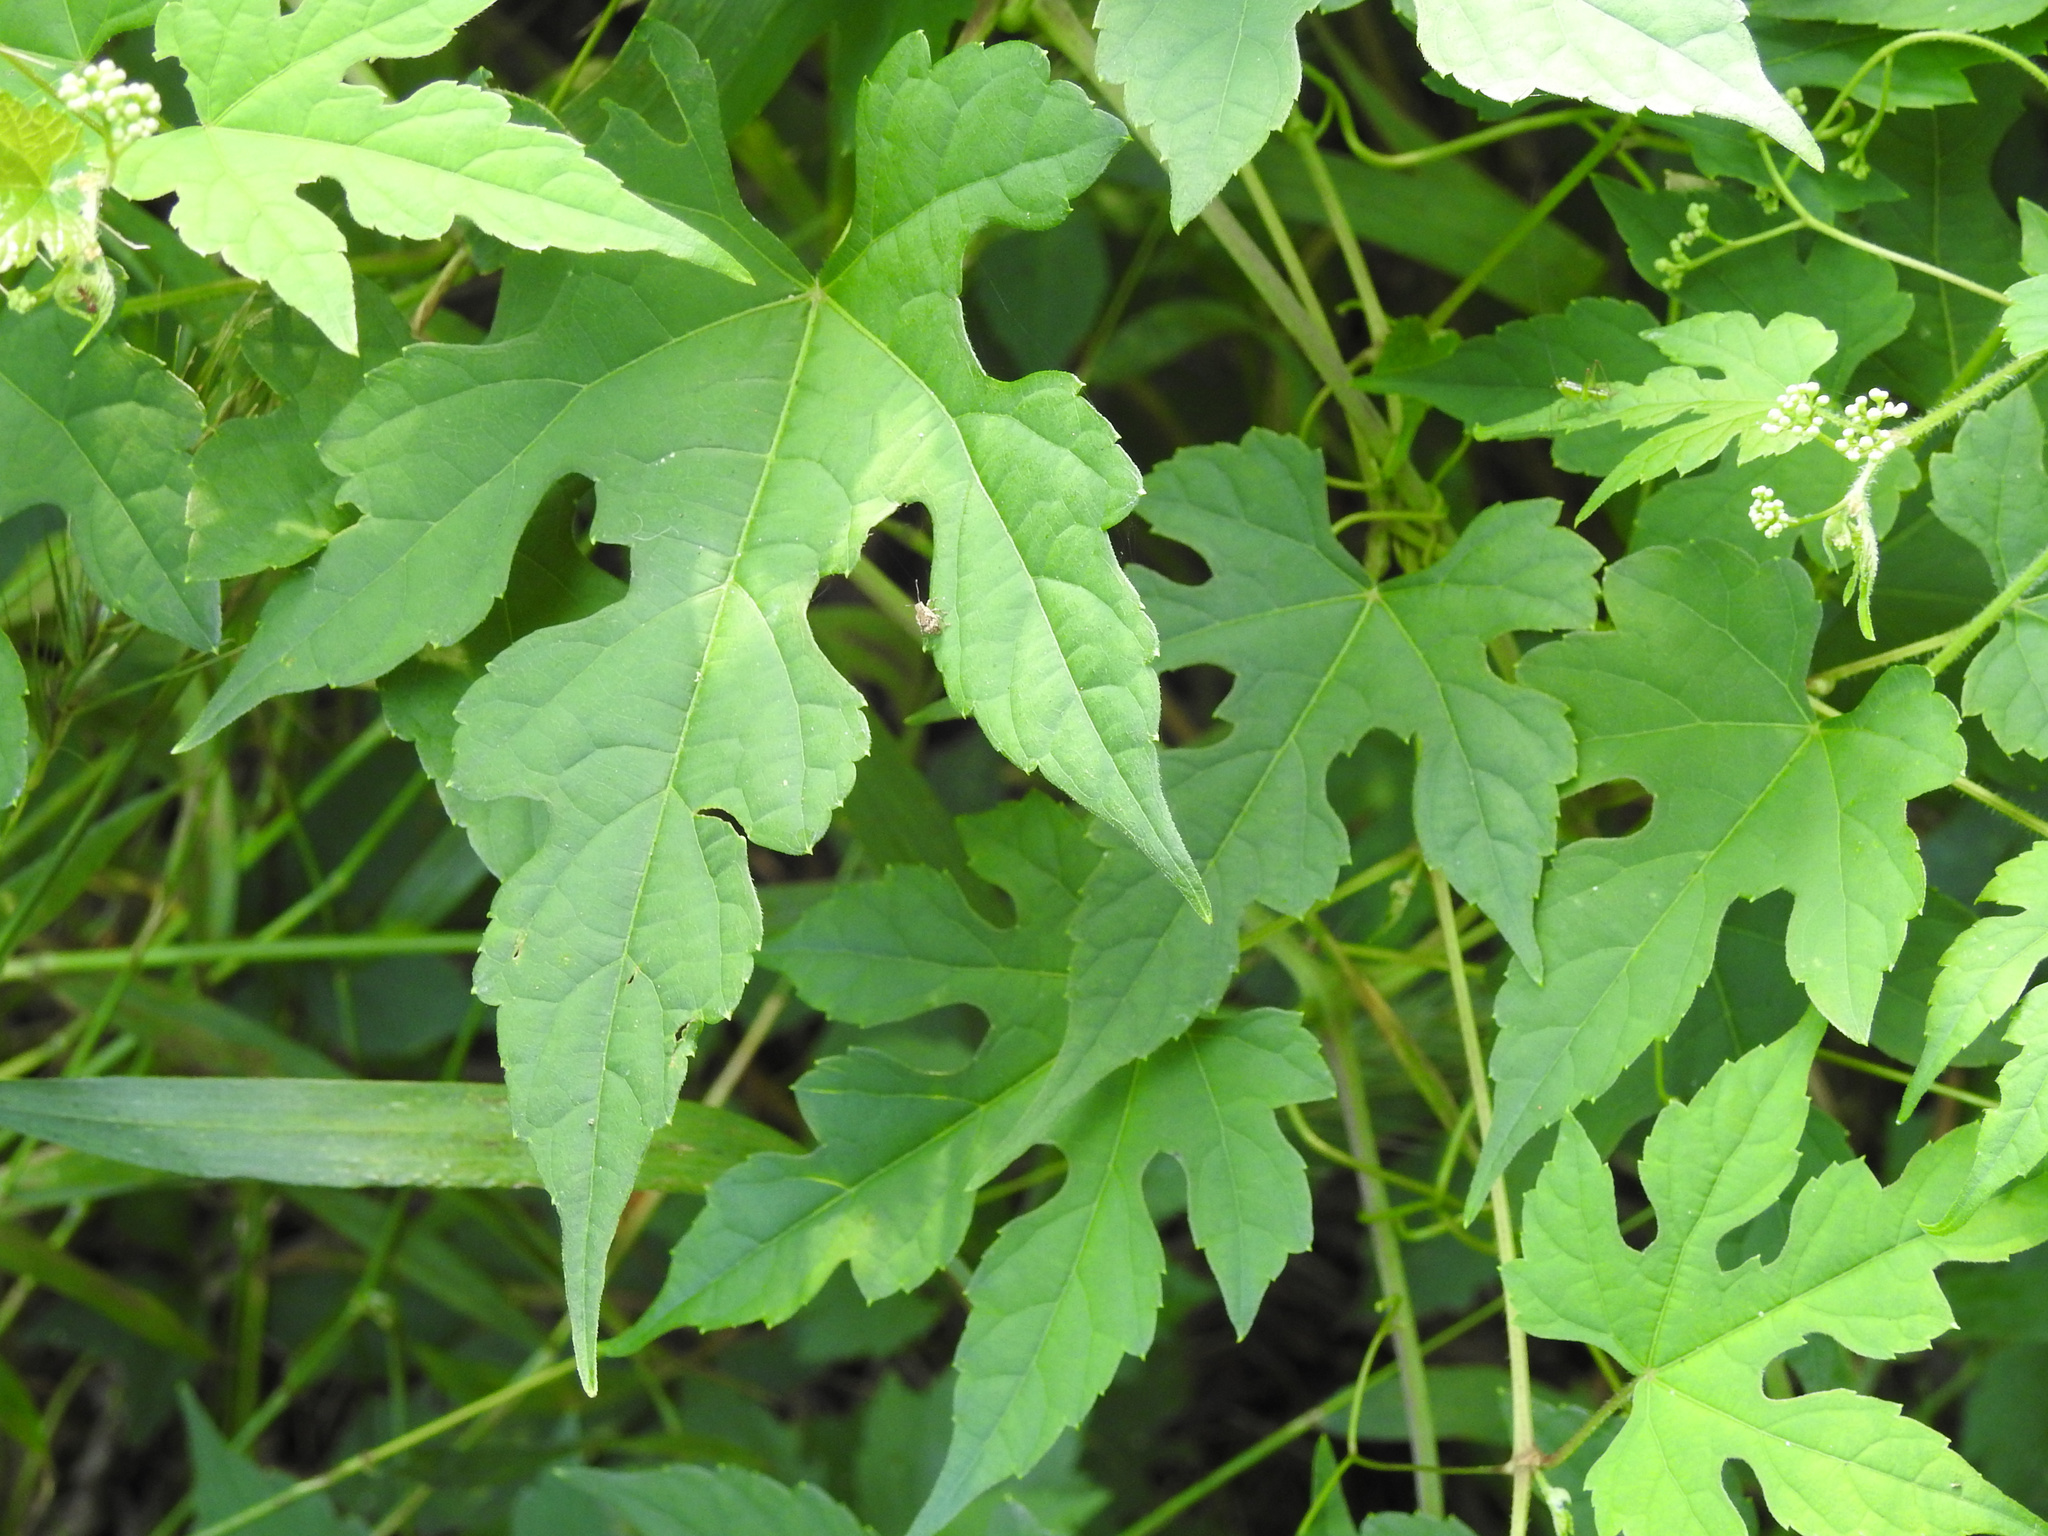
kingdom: Plantae
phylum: Tracheophyta
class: Magnoliopsida
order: Vitales
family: Vitaceae
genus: Ampelopsis
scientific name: Ampelopsis glandulosa
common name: Amur peppervine
